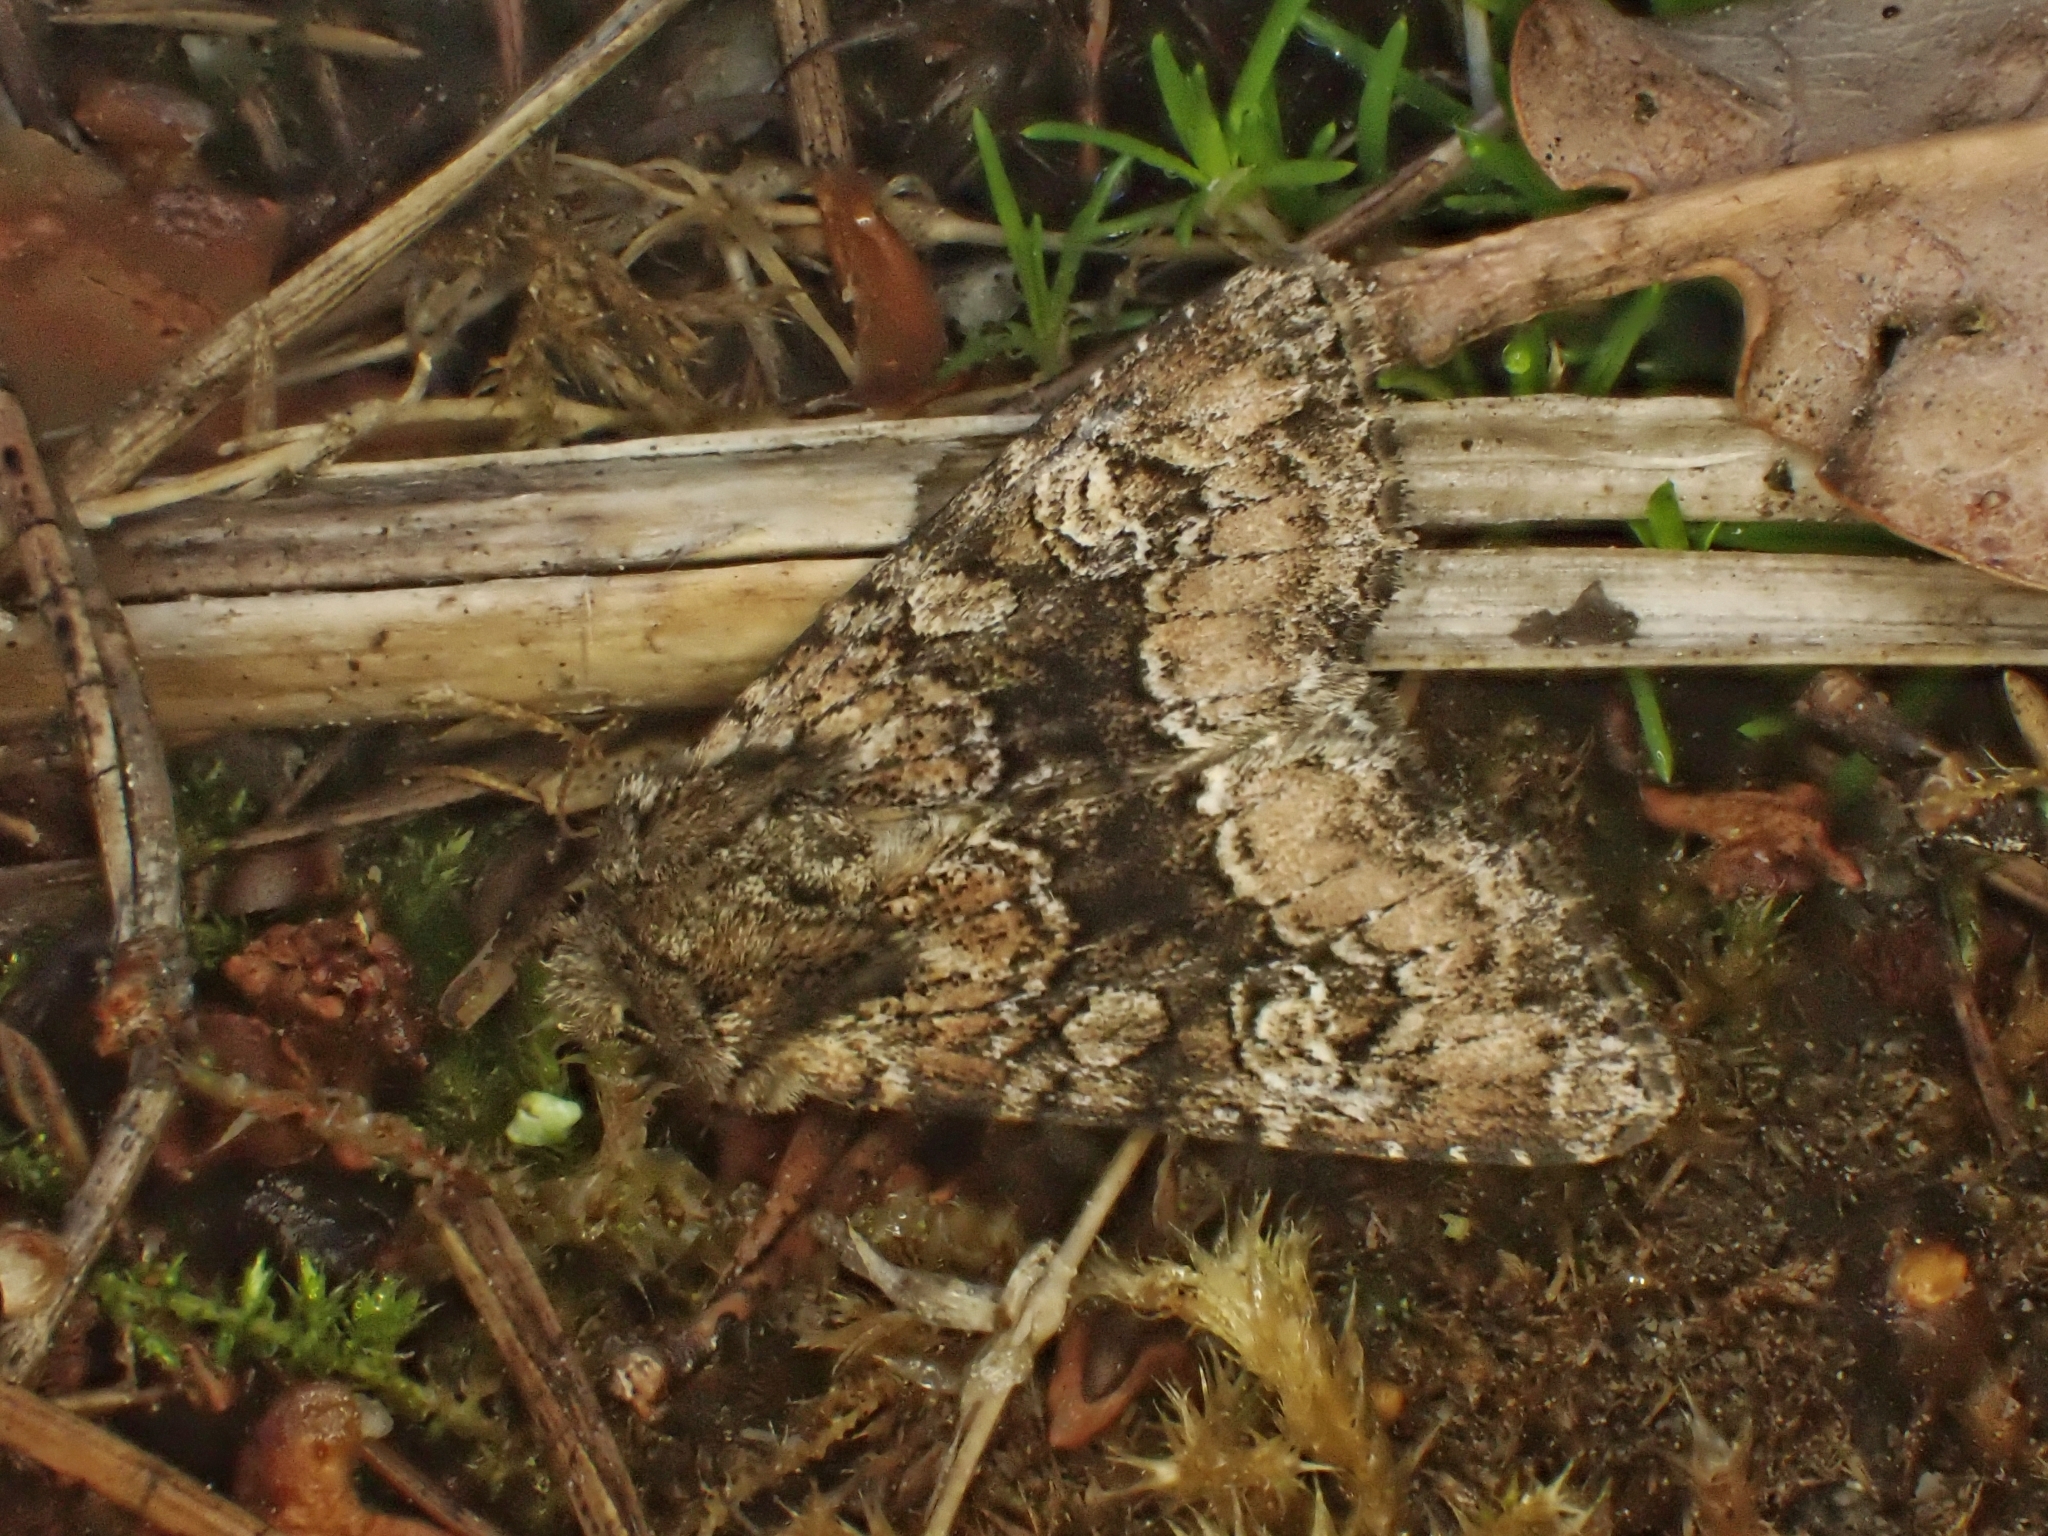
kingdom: Animalia
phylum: Arthropoda
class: Insecta
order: Lepidoptera
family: Noctuidae
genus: Apamea
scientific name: Apamea illyria
